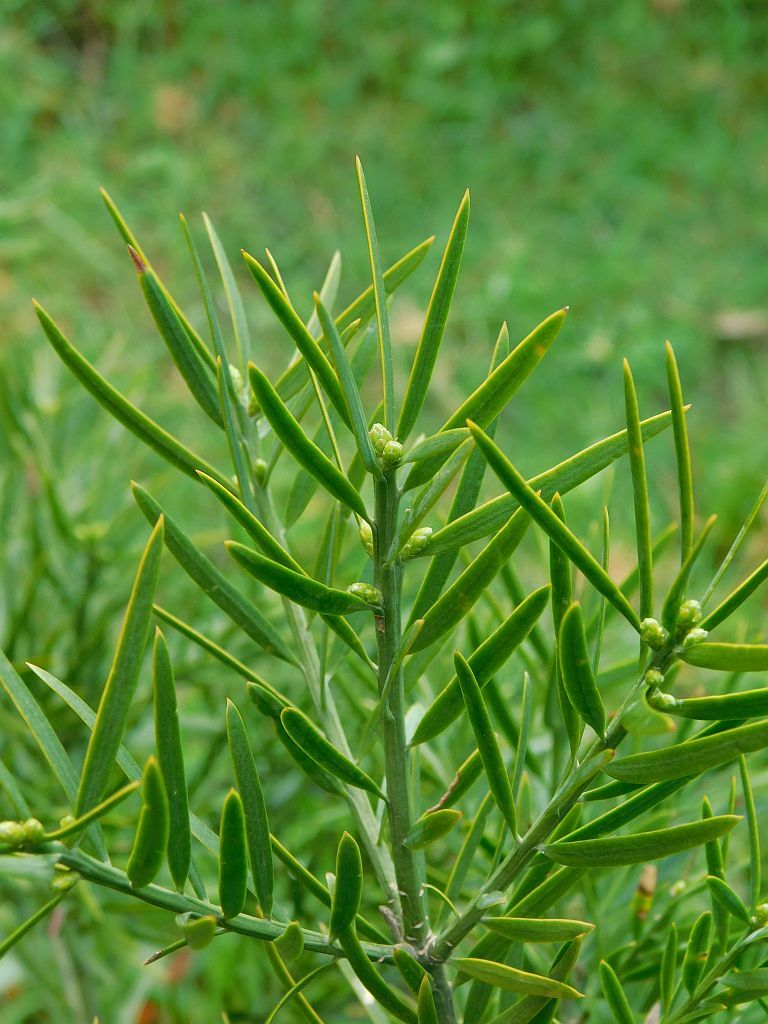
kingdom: Plantae
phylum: Tracheophyta
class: Pinopsida
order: Pinales
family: Podocarpaceae
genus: Afrocarpus
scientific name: Afrocarpus falcatus
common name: Bastard yellowwood
